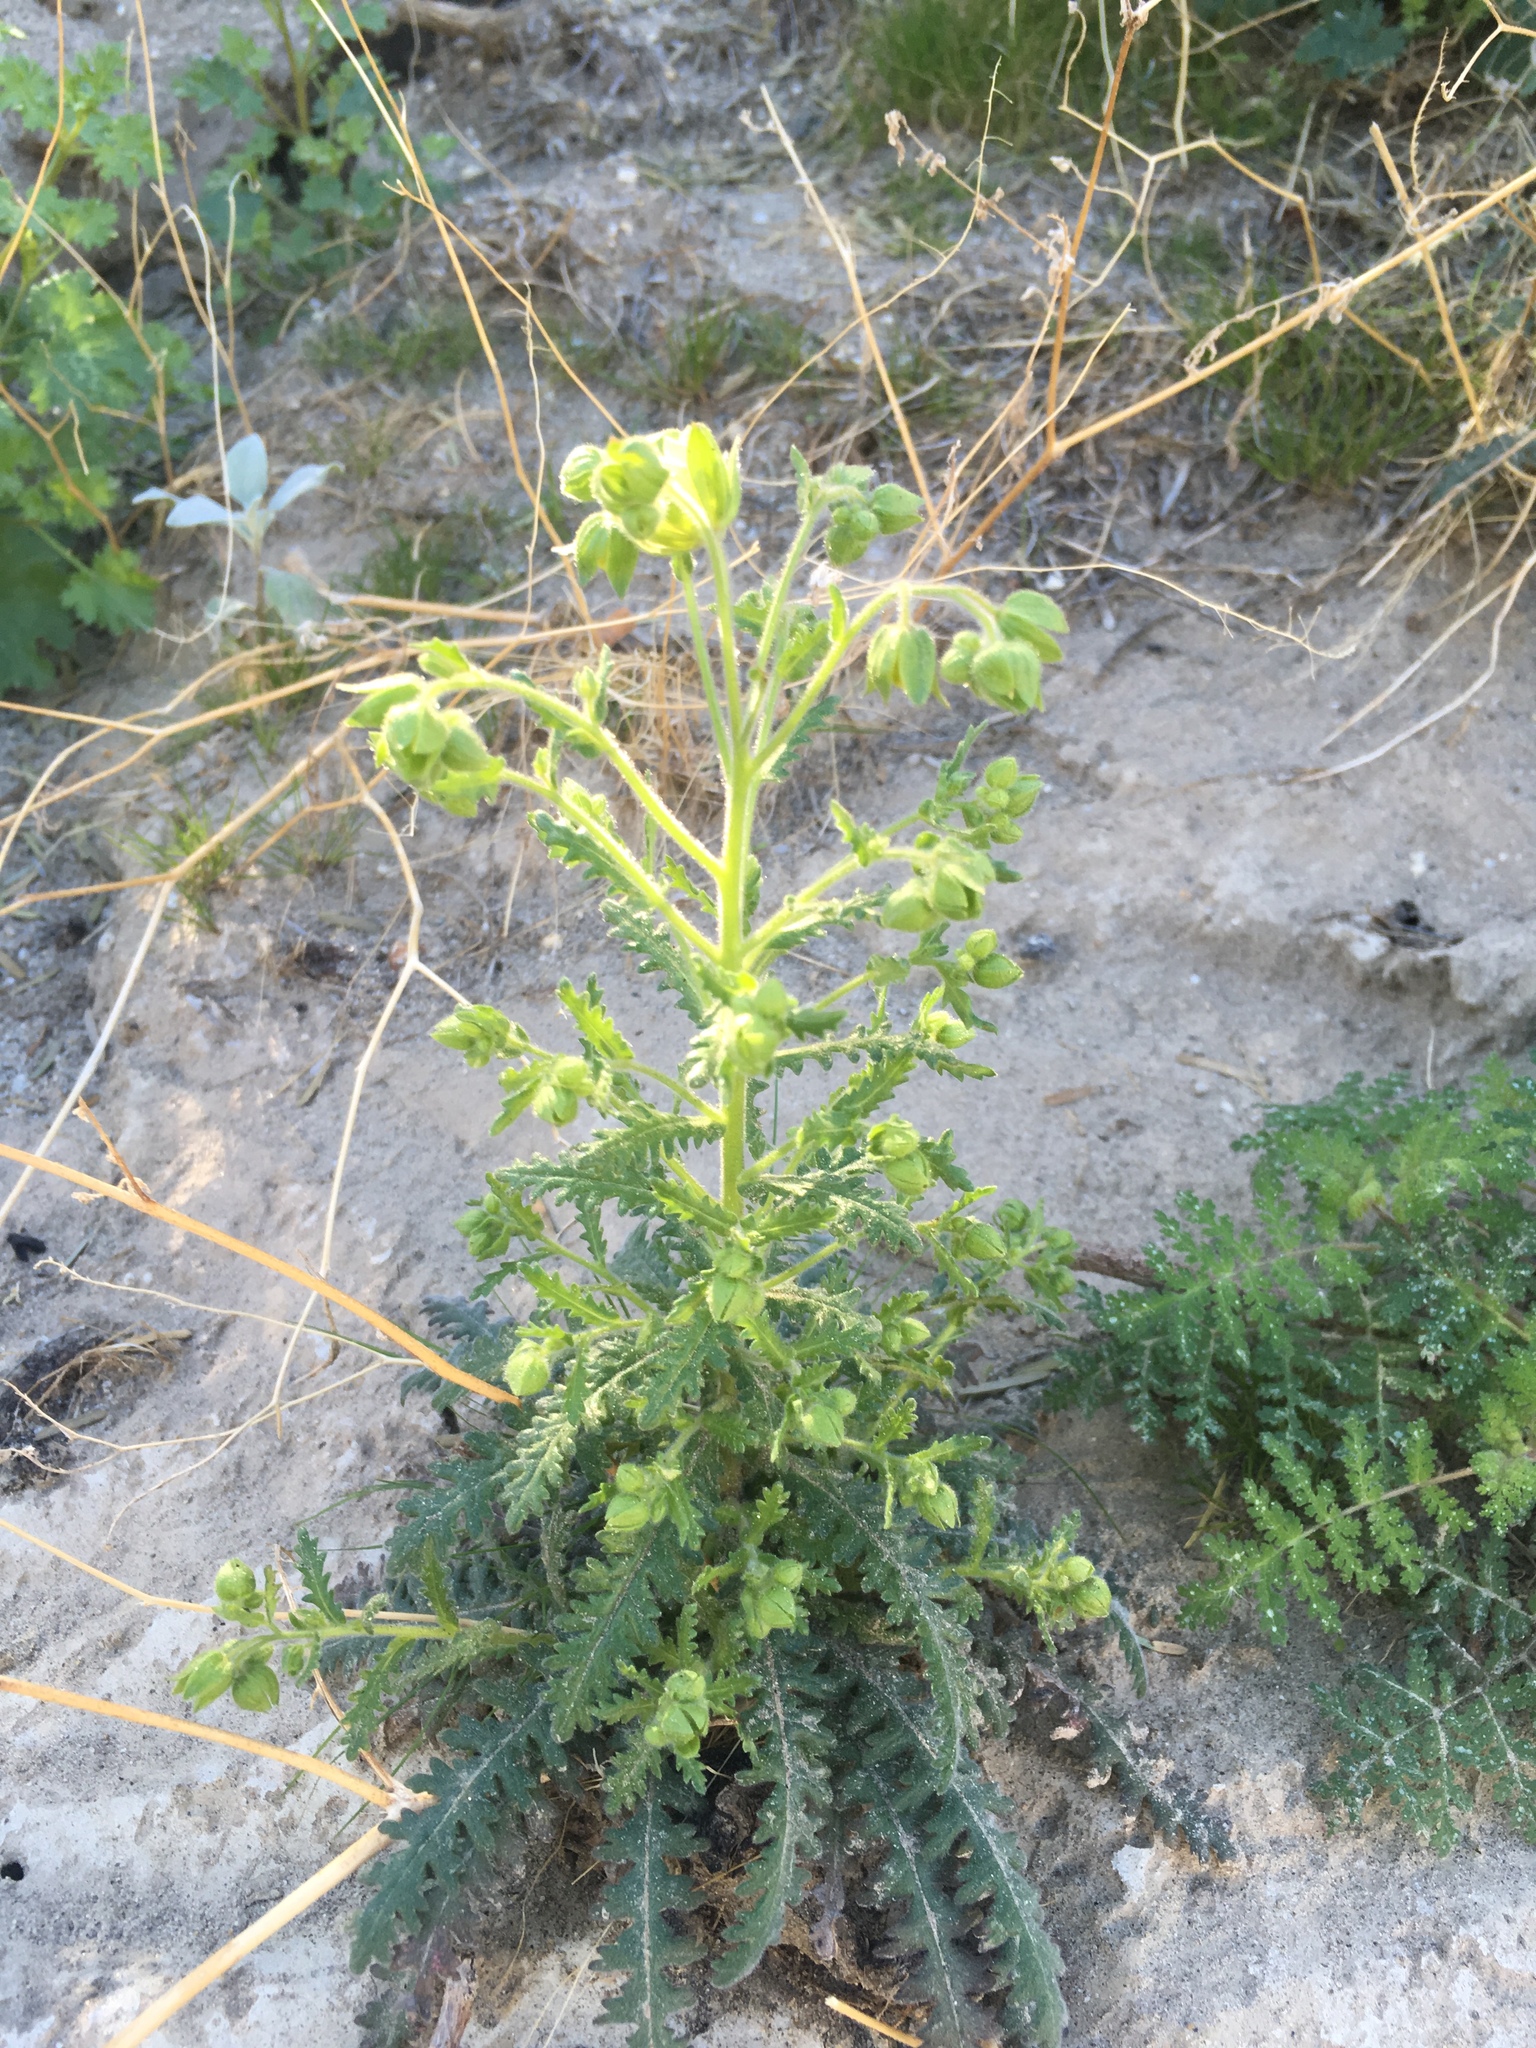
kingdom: Plantae
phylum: Tracheophyta
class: Magnoliopsida
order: Boraginales
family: Hydrophyllaceae
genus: Emmenanthe
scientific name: Emmenanthe penduliflora
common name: Whispering-bells
